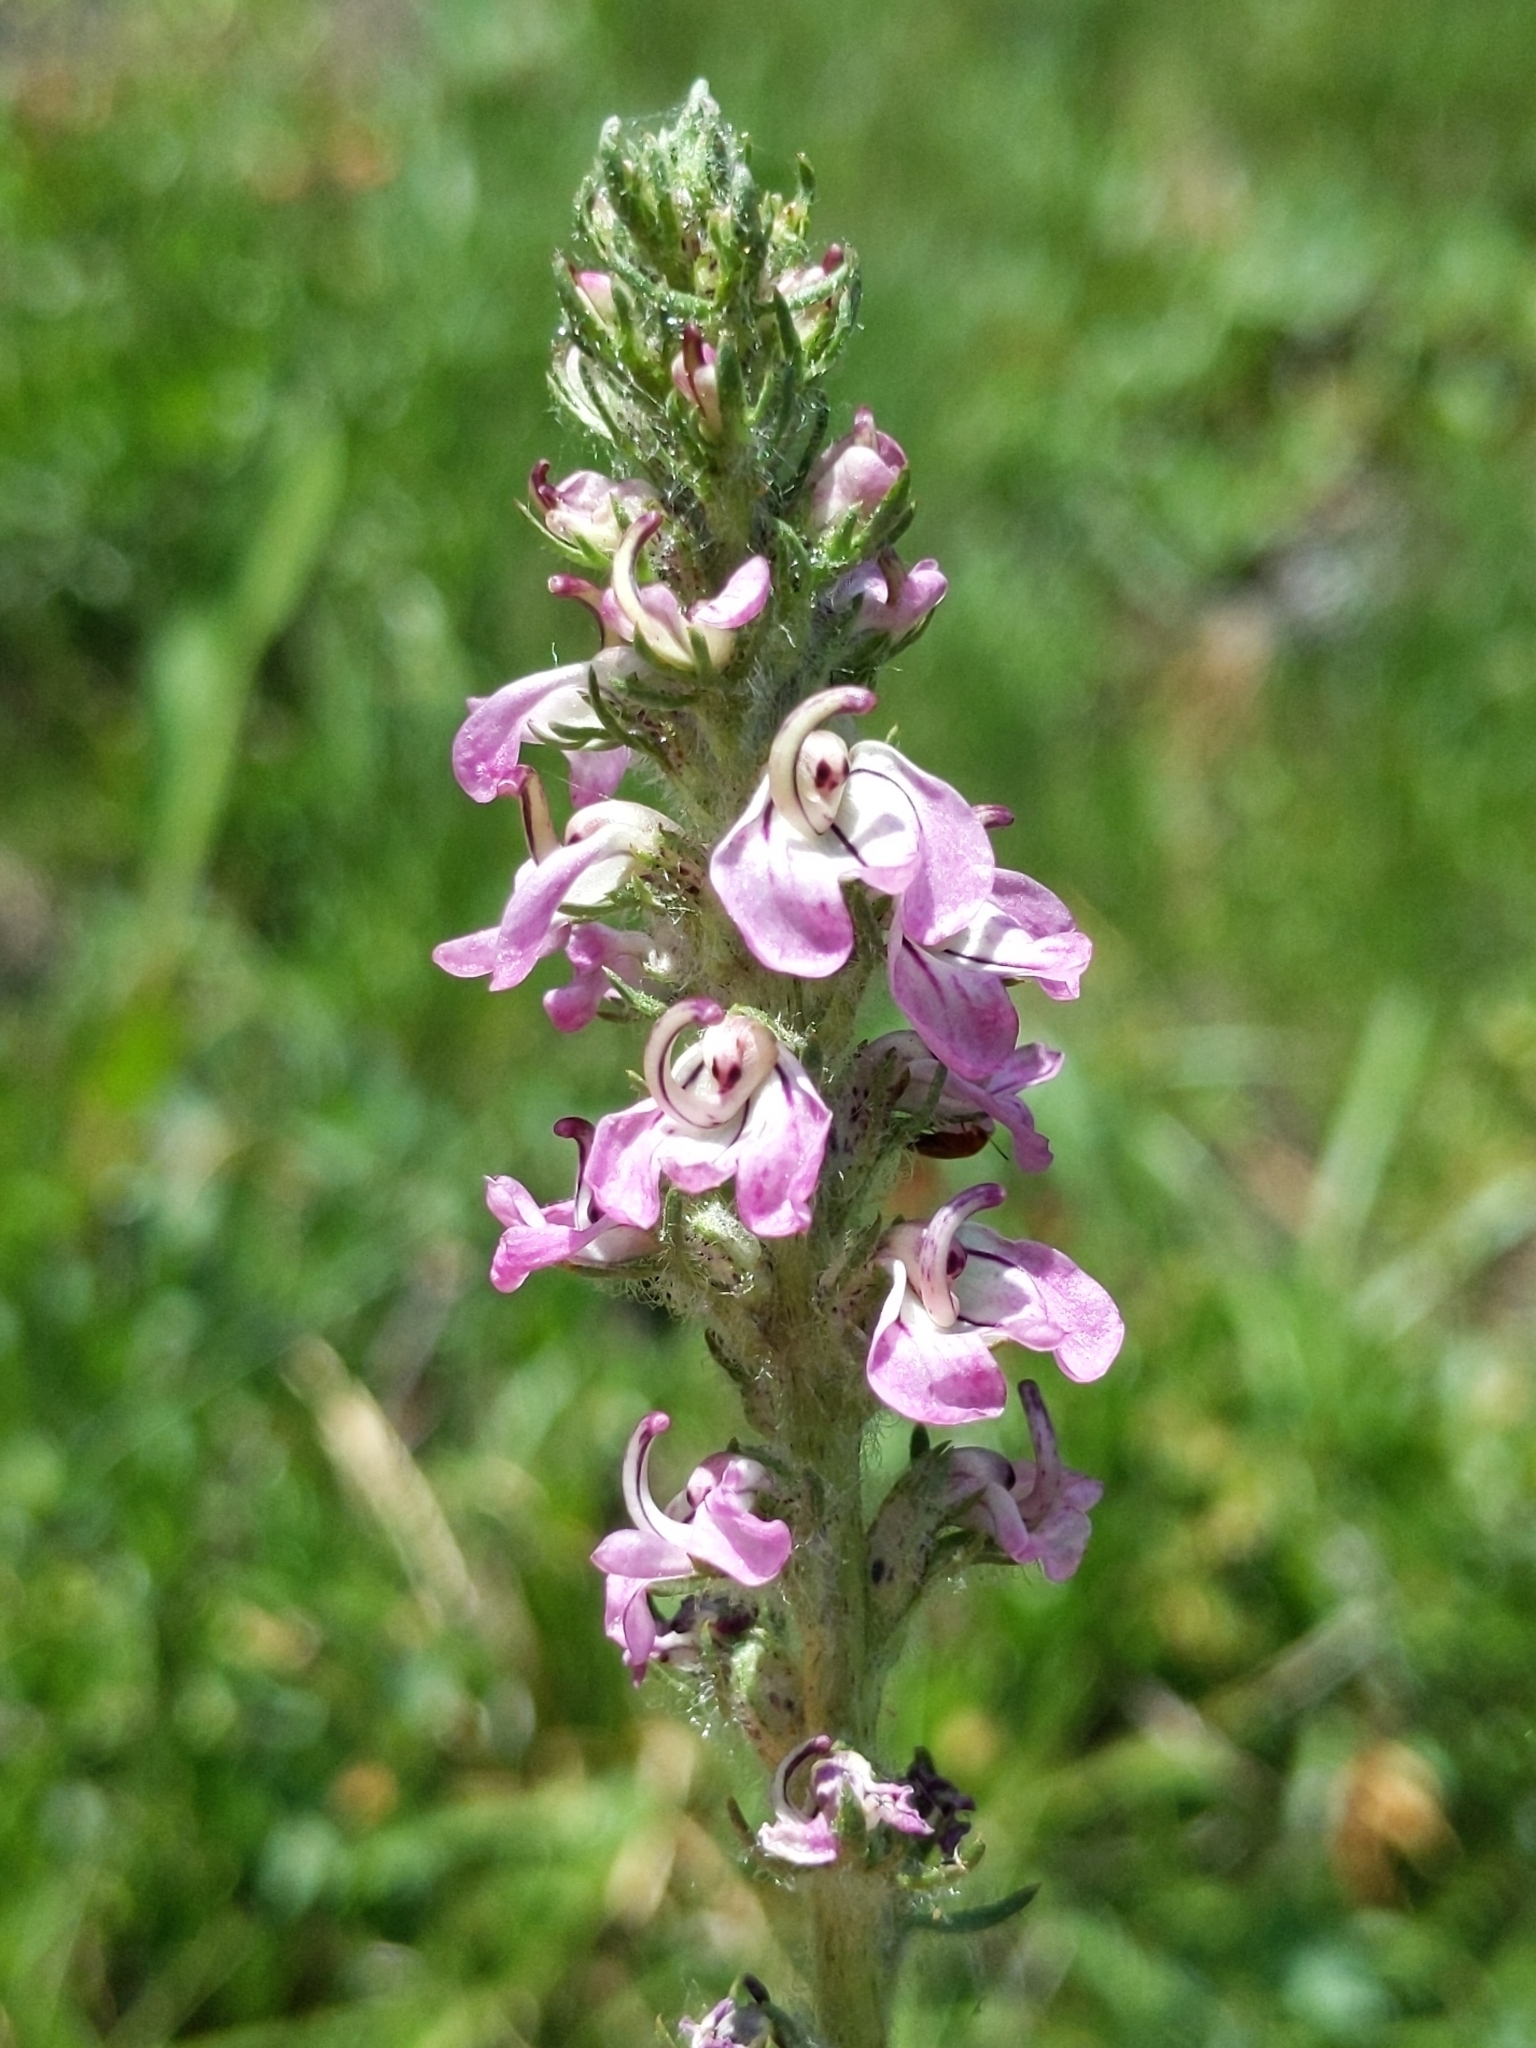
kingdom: Plantae
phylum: Tracheophyta
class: Magnoliopsida
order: Lamiales
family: Orobanchaceae
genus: Pedicularis
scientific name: Pedicularis attollens
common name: Slender pedicularis
